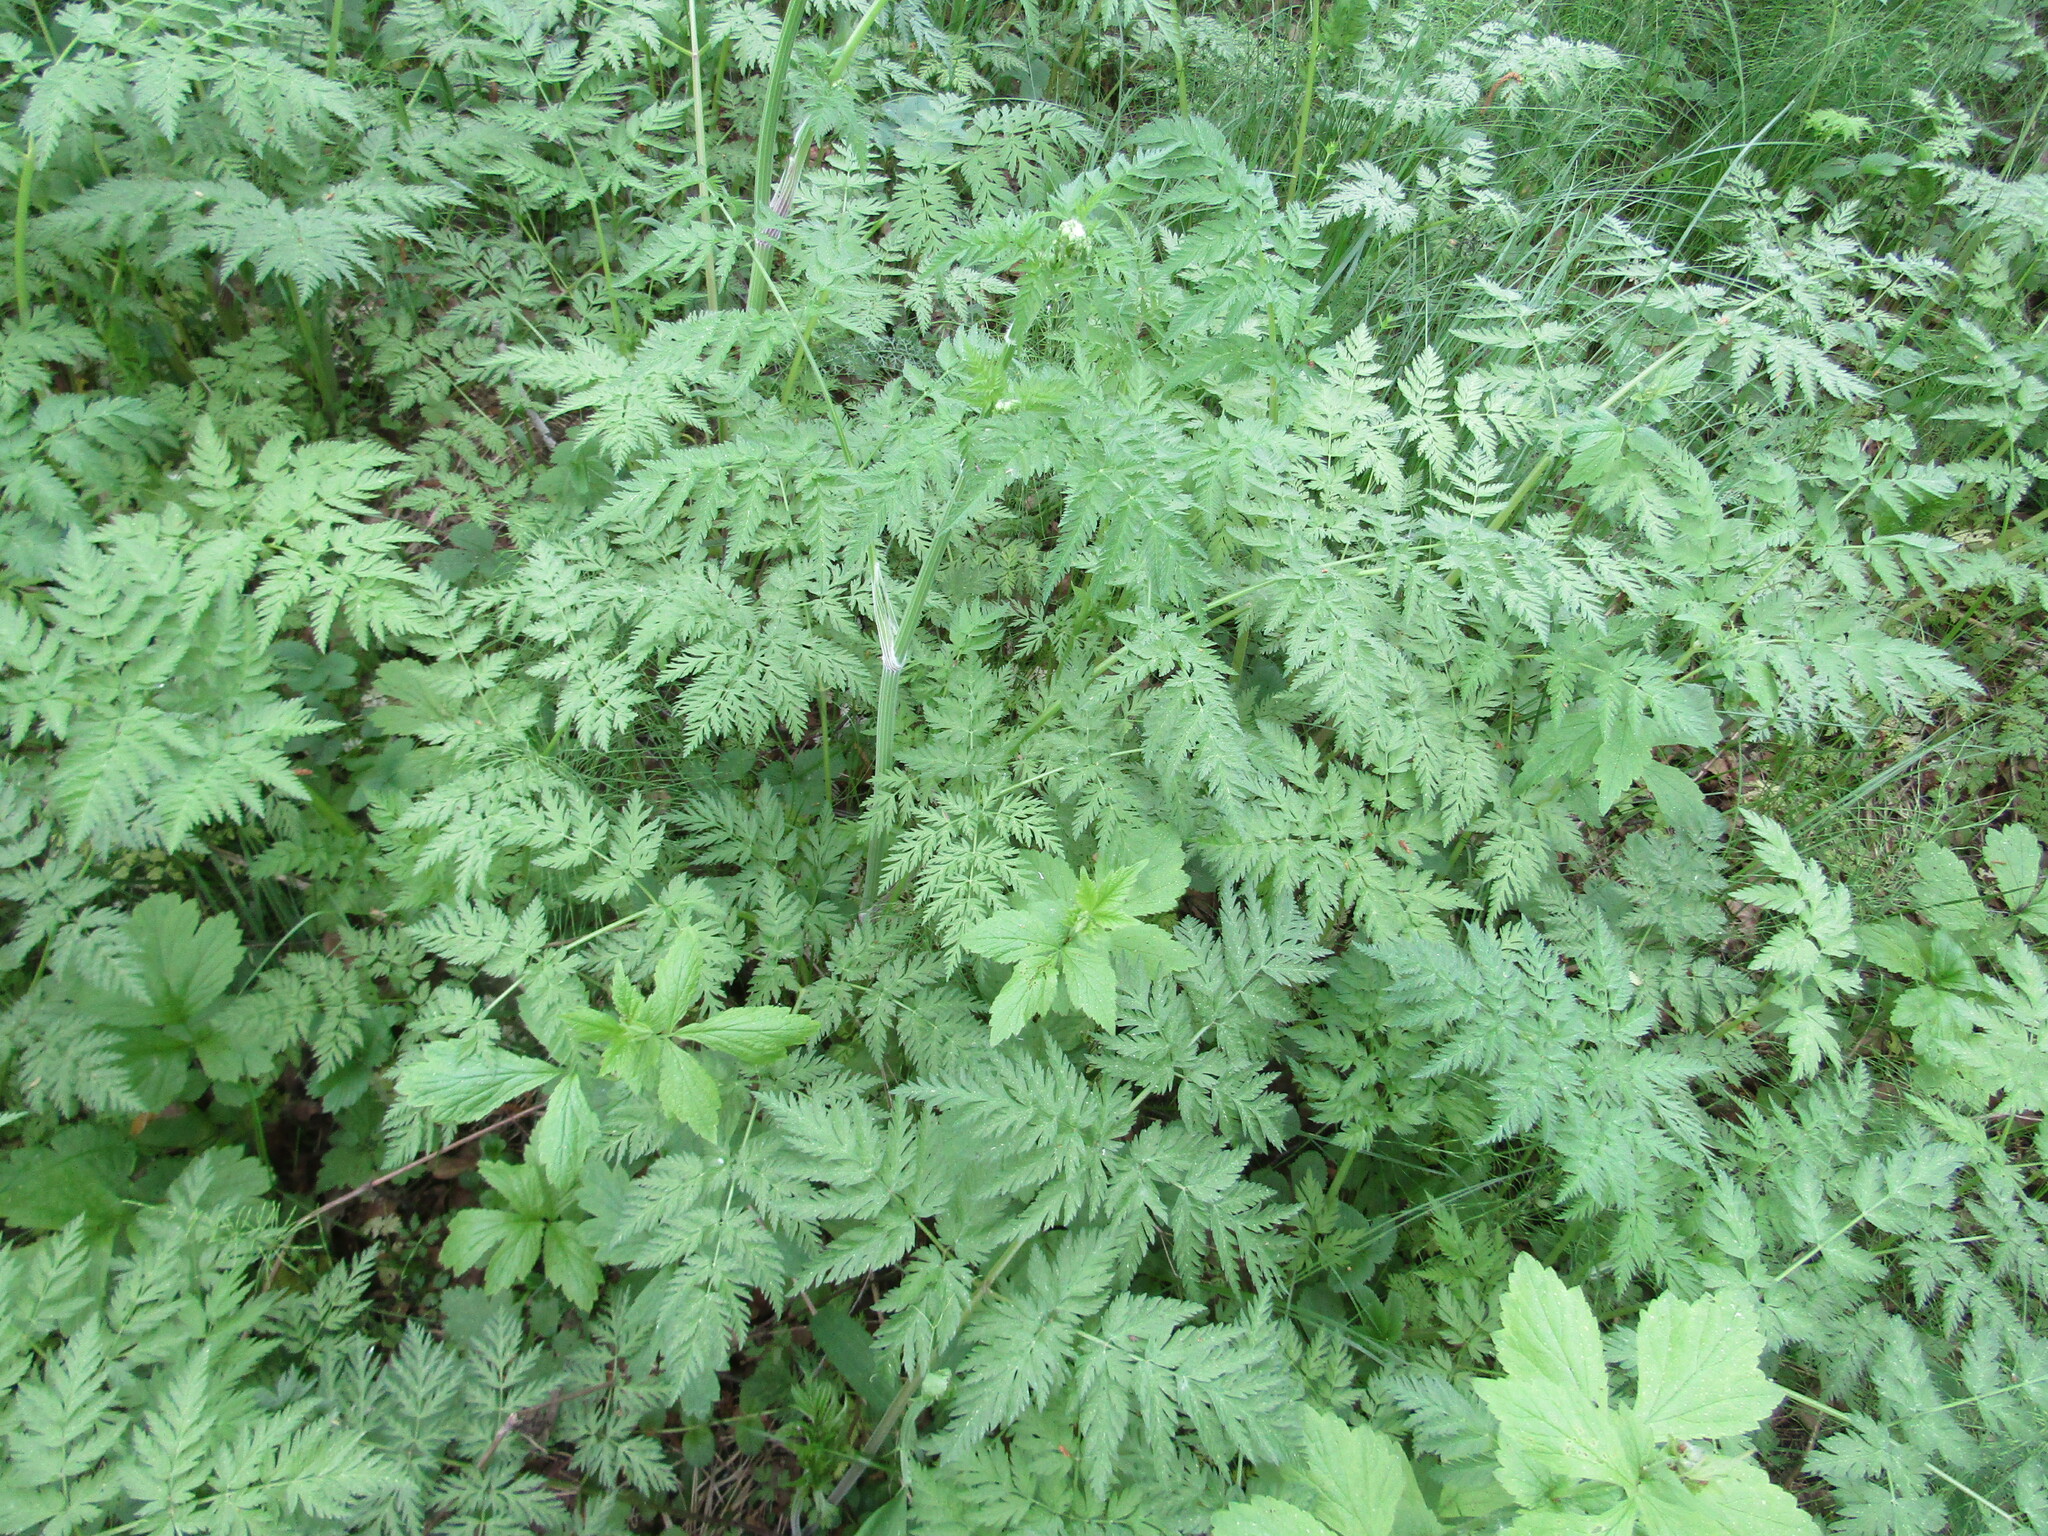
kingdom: Plantae
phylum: Tracheophyta
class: Magnoliopsida
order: Apiales
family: Apiaceae
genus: Anthriscus
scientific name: Anthriscus sylvestris
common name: Cow parsley
